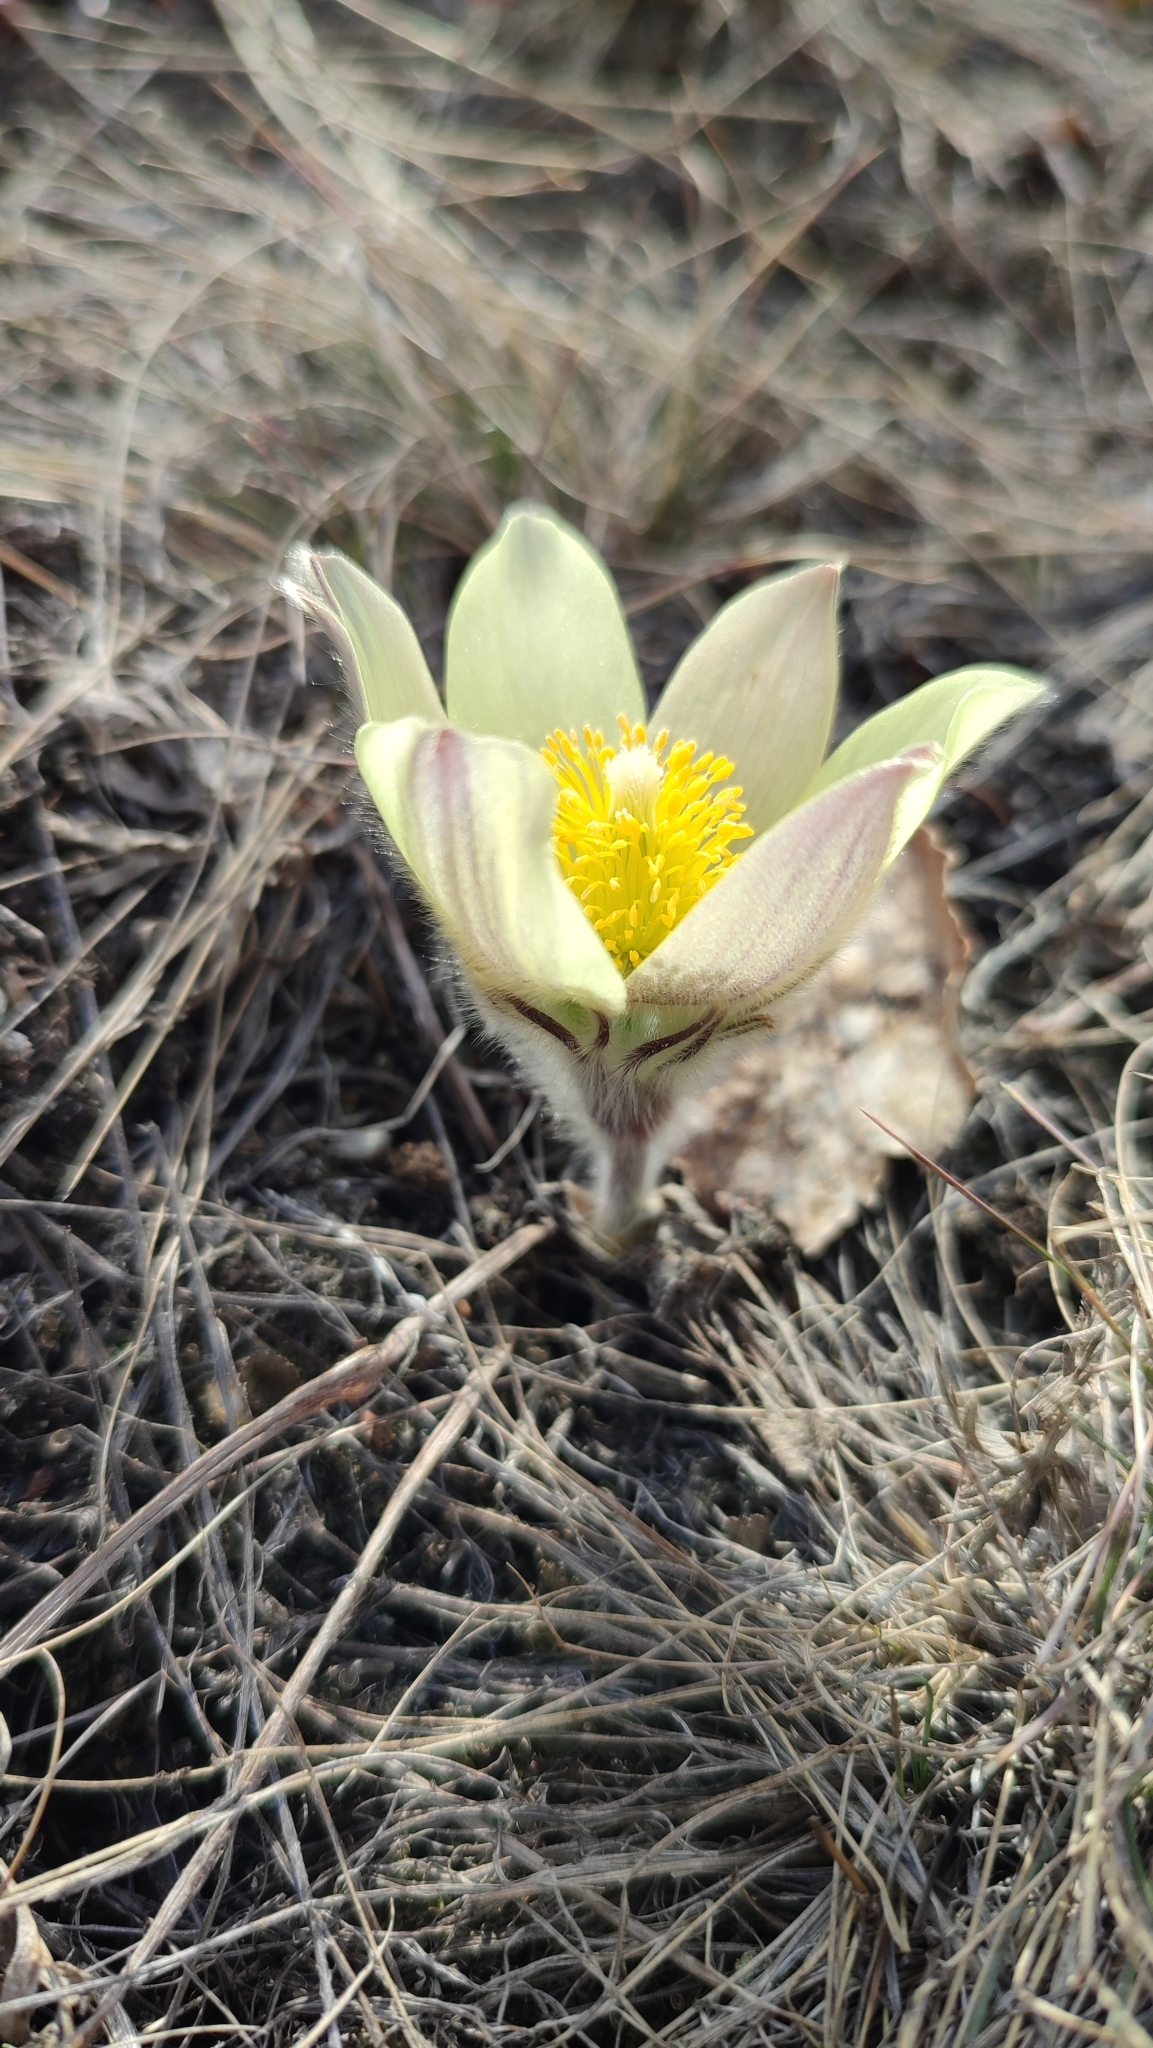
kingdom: Plantae
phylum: Tracheophyta
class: Magnoliopsida
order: Ranunculales
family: Ranunculaceae
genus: Pulsatilla
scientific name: Pulsatilla patens
